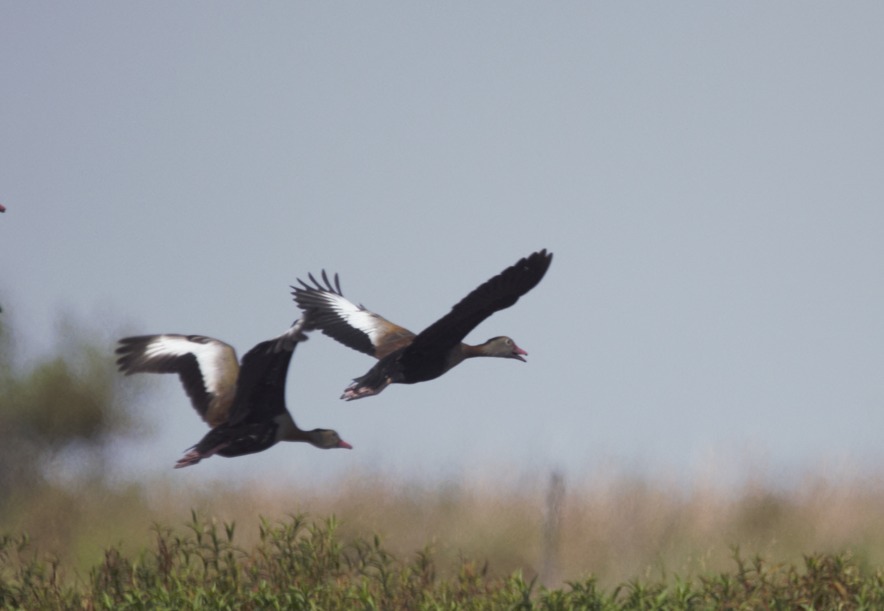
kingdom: Animalia
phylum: Chordata
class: Aves
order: Anseriformes
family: Anatidae
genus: Dendrocygna
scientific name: Dendrocygna autumnalis
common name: Black-bellied whistling duck
